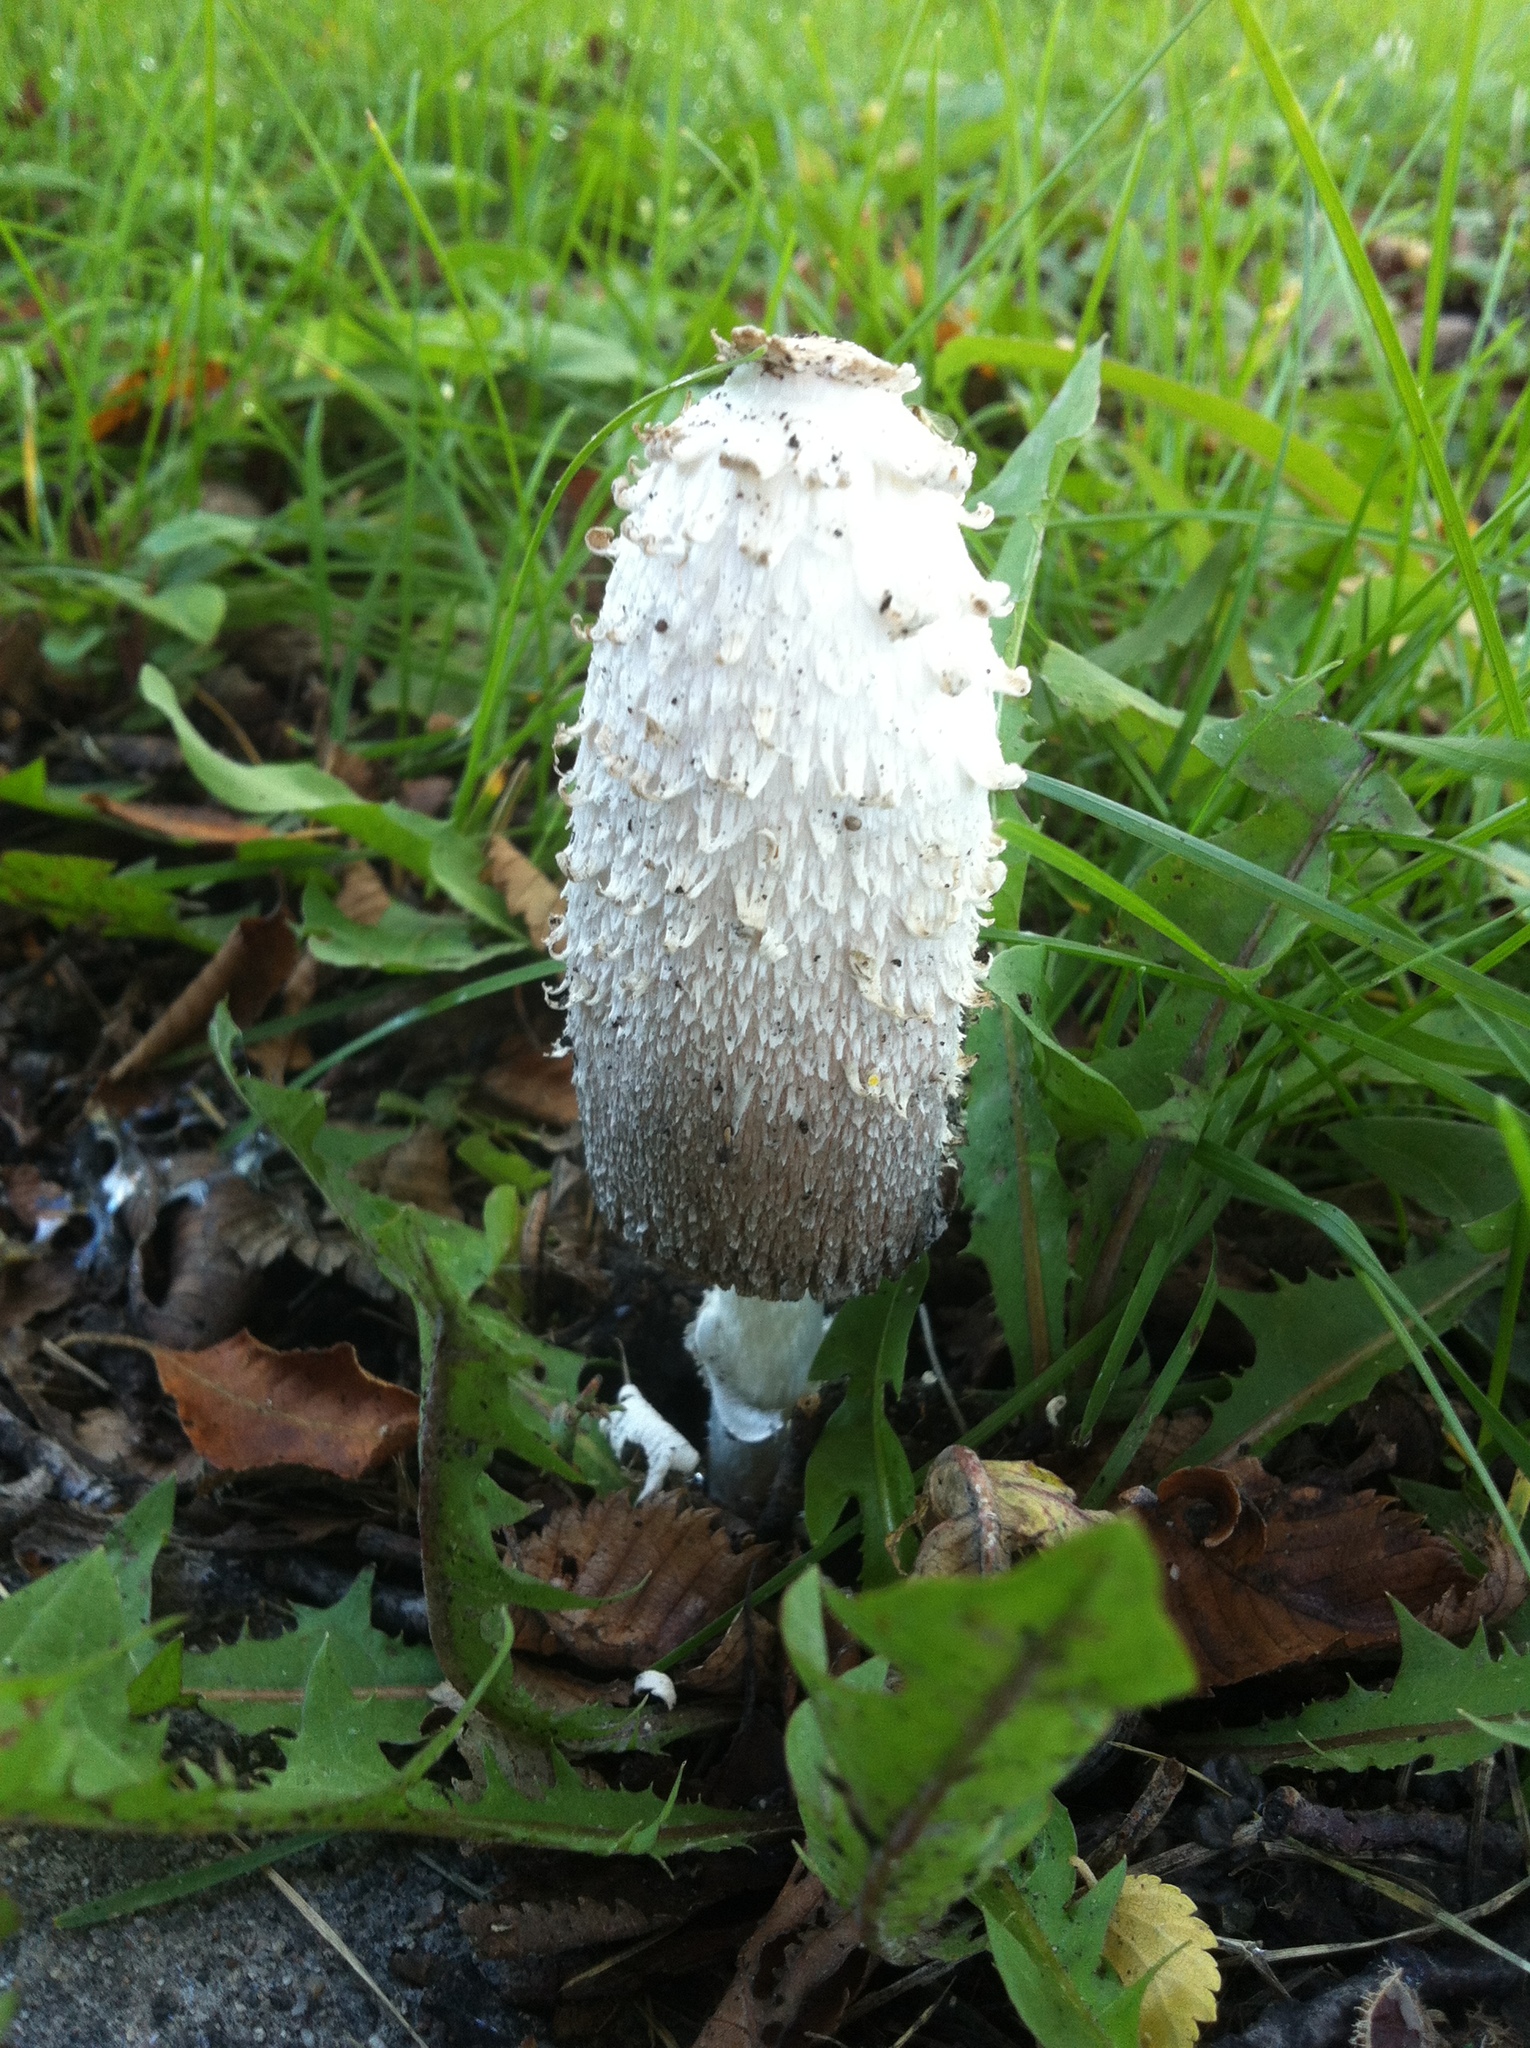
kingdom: Fungi
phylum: Basidiomycota
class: Agaricomycetes
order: Agaricales
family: Agaricaceae
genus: Coprinus
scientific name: Coprinus comatus
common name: Lawyer's wig
